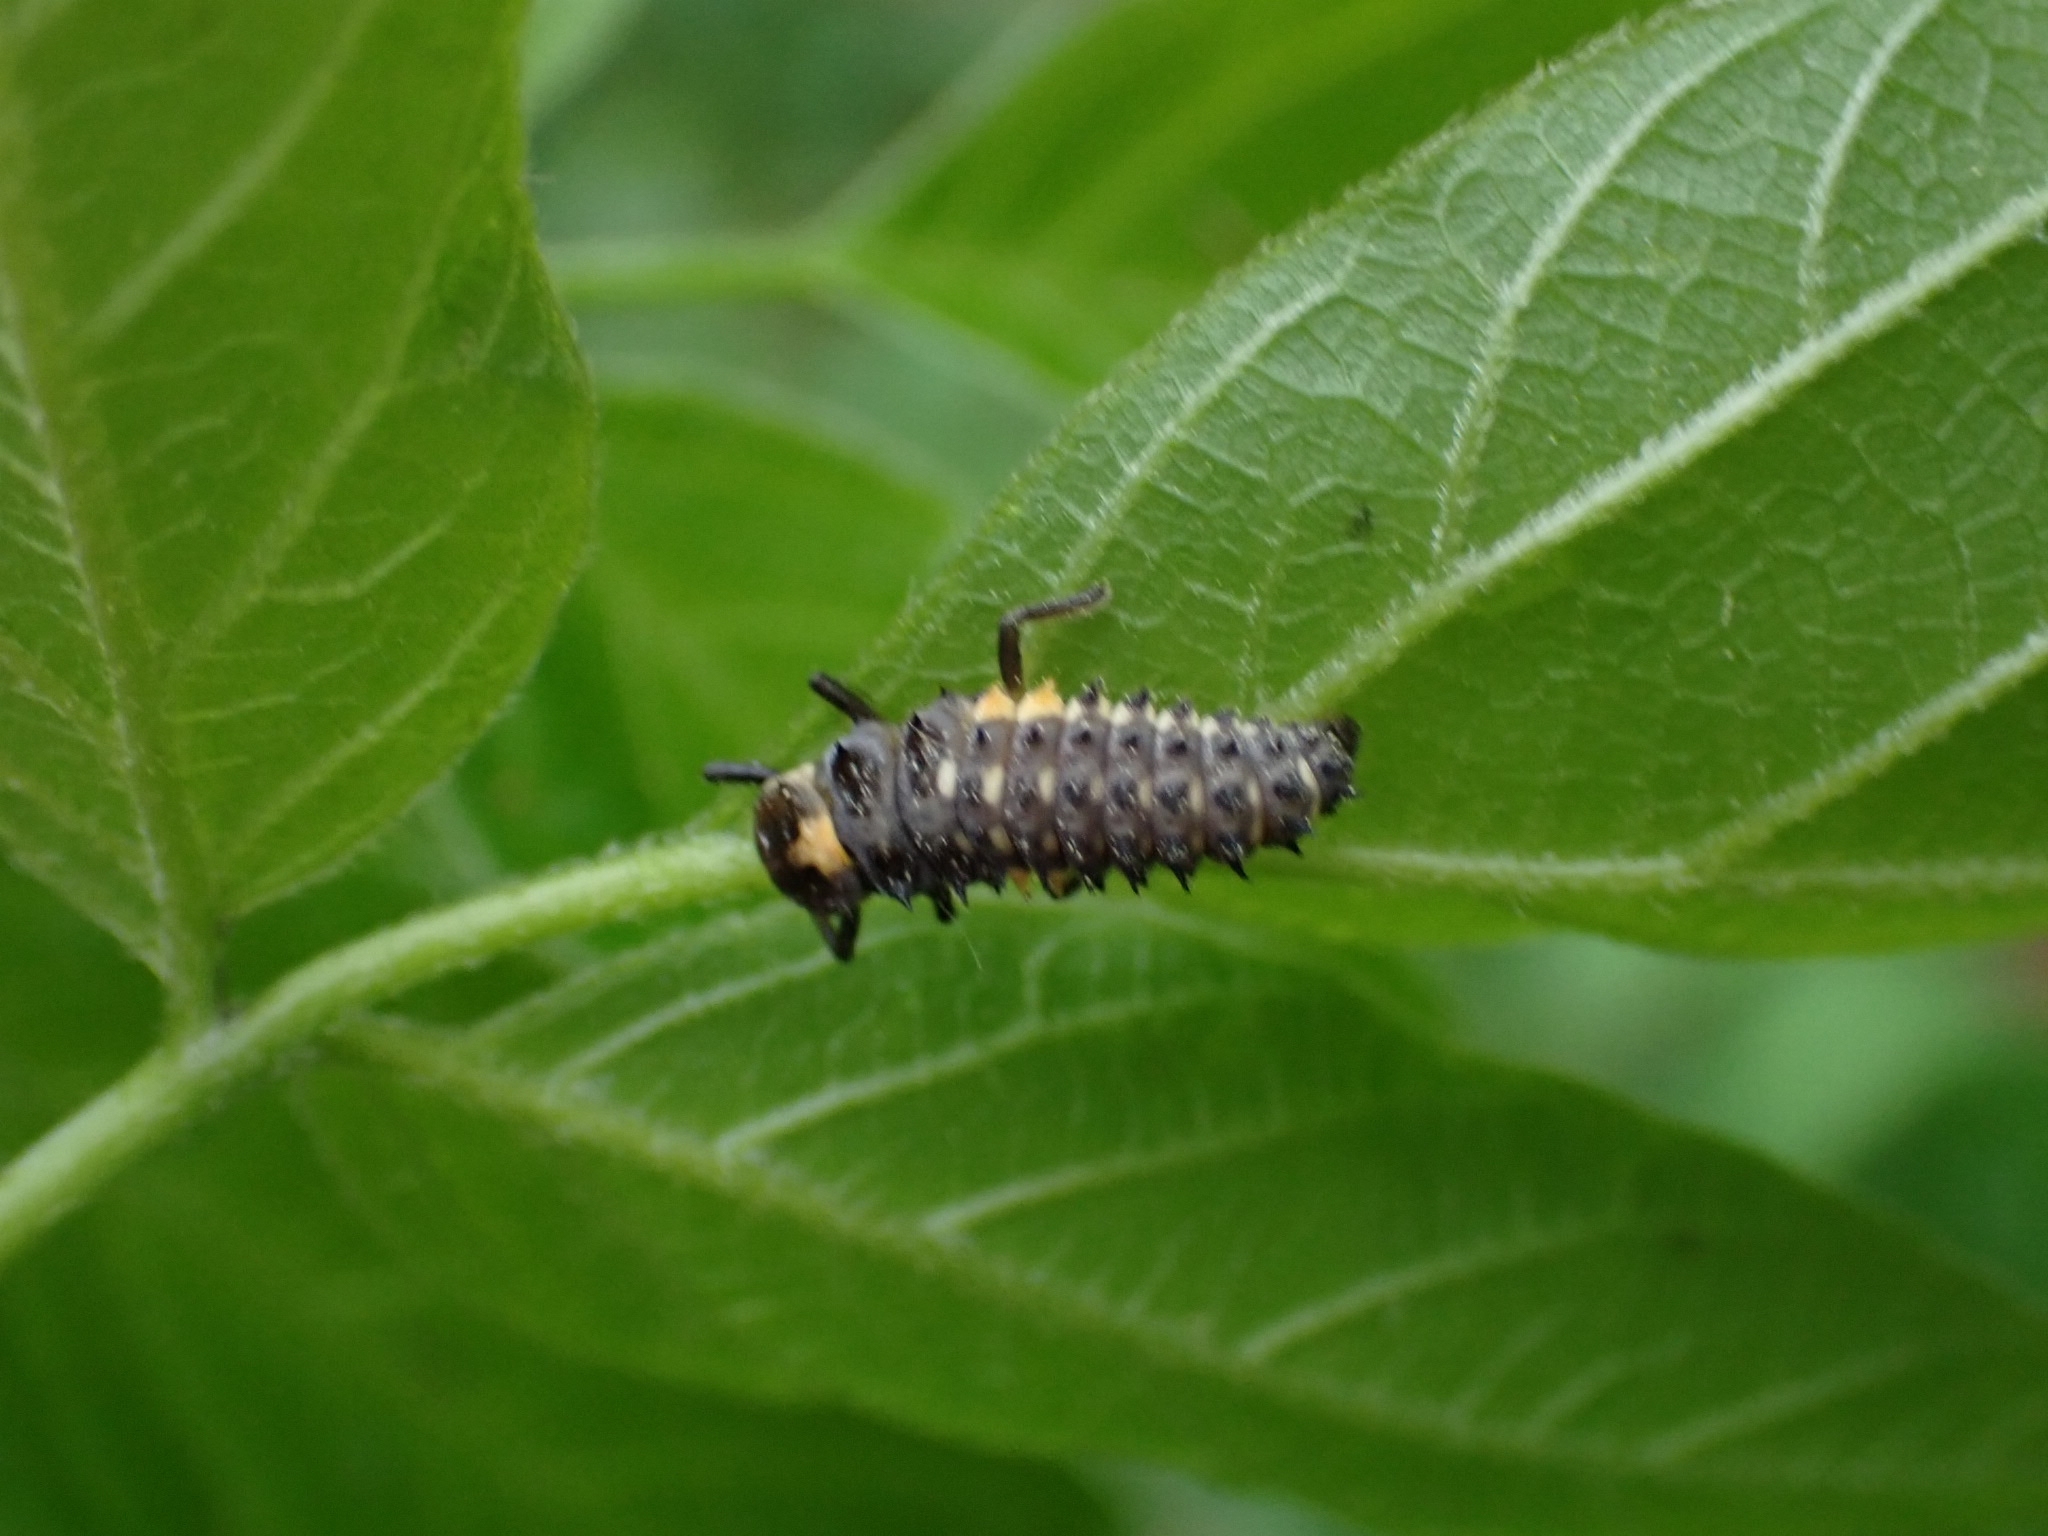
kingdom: Animalia
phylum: Arthropoda
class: Insecta
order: Coleoptera
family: Coccinellidae
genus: Anatis
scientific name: Anatis ocellata
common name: Eyed ladybird
